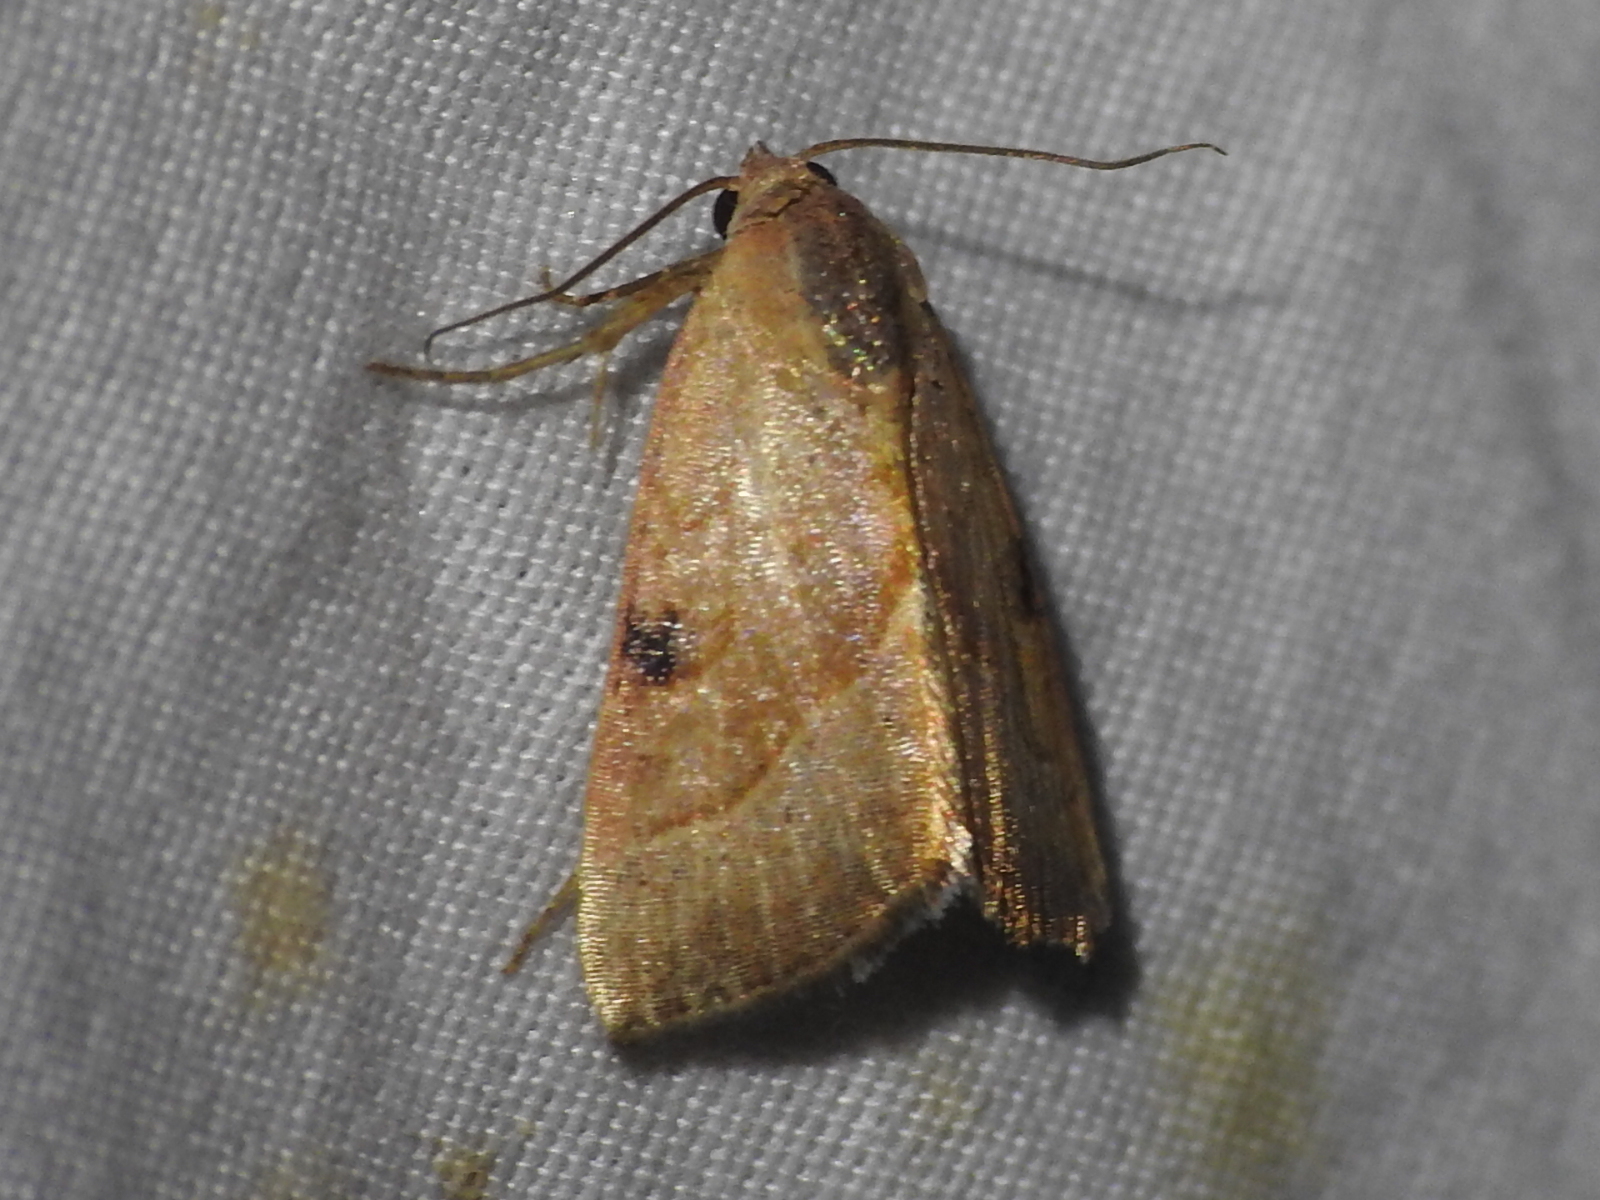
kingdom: Animalia
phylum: Arthropoda
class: Insecta
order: Lepidoptera
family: Noctuidae
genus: Galgula
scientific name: Galgula partita
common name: Wedgeling
